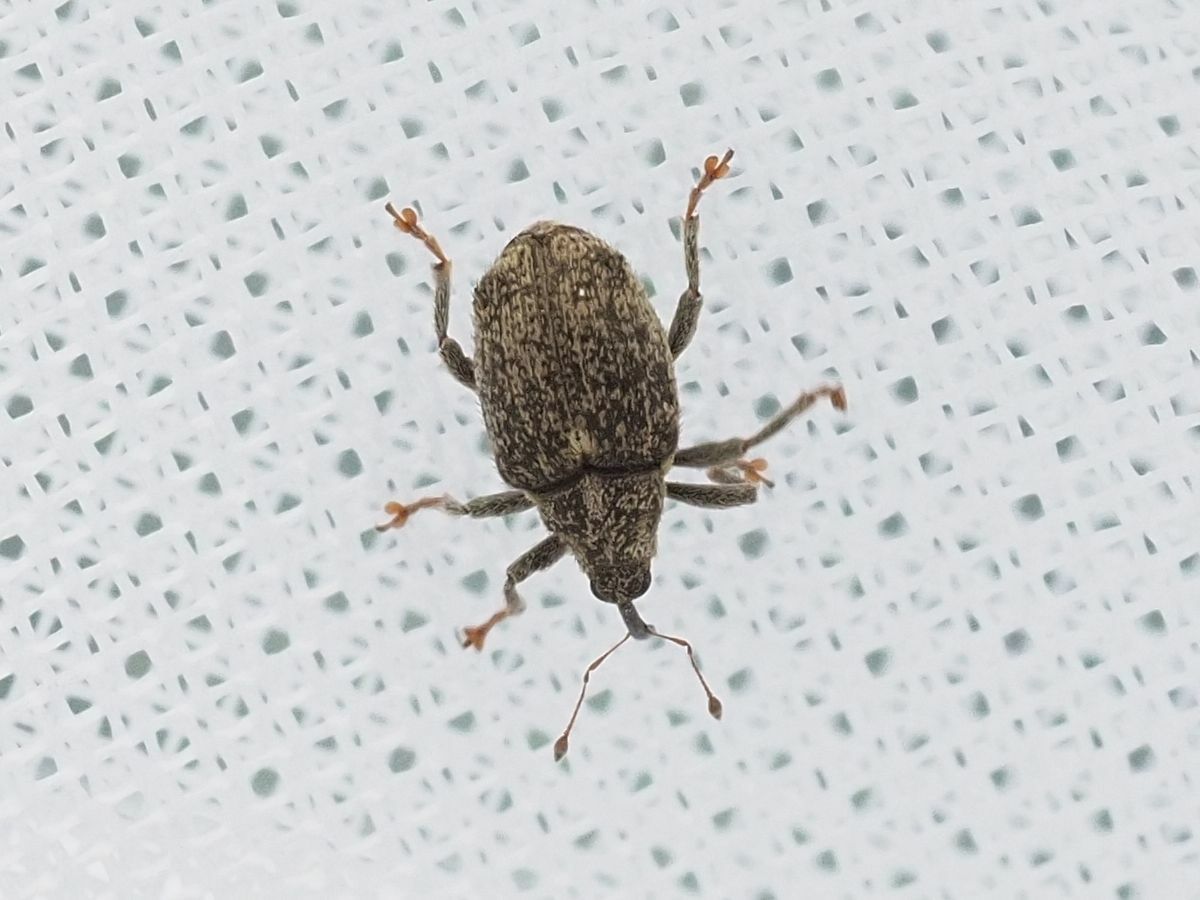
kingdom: Animalia
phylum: Arthropoda
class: Insecta
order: Coleoptera
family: Curculionidae
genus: Ceutorhynchus
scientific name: Ceutorhynchus pallidactylus
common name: Cabbage stem weavil
